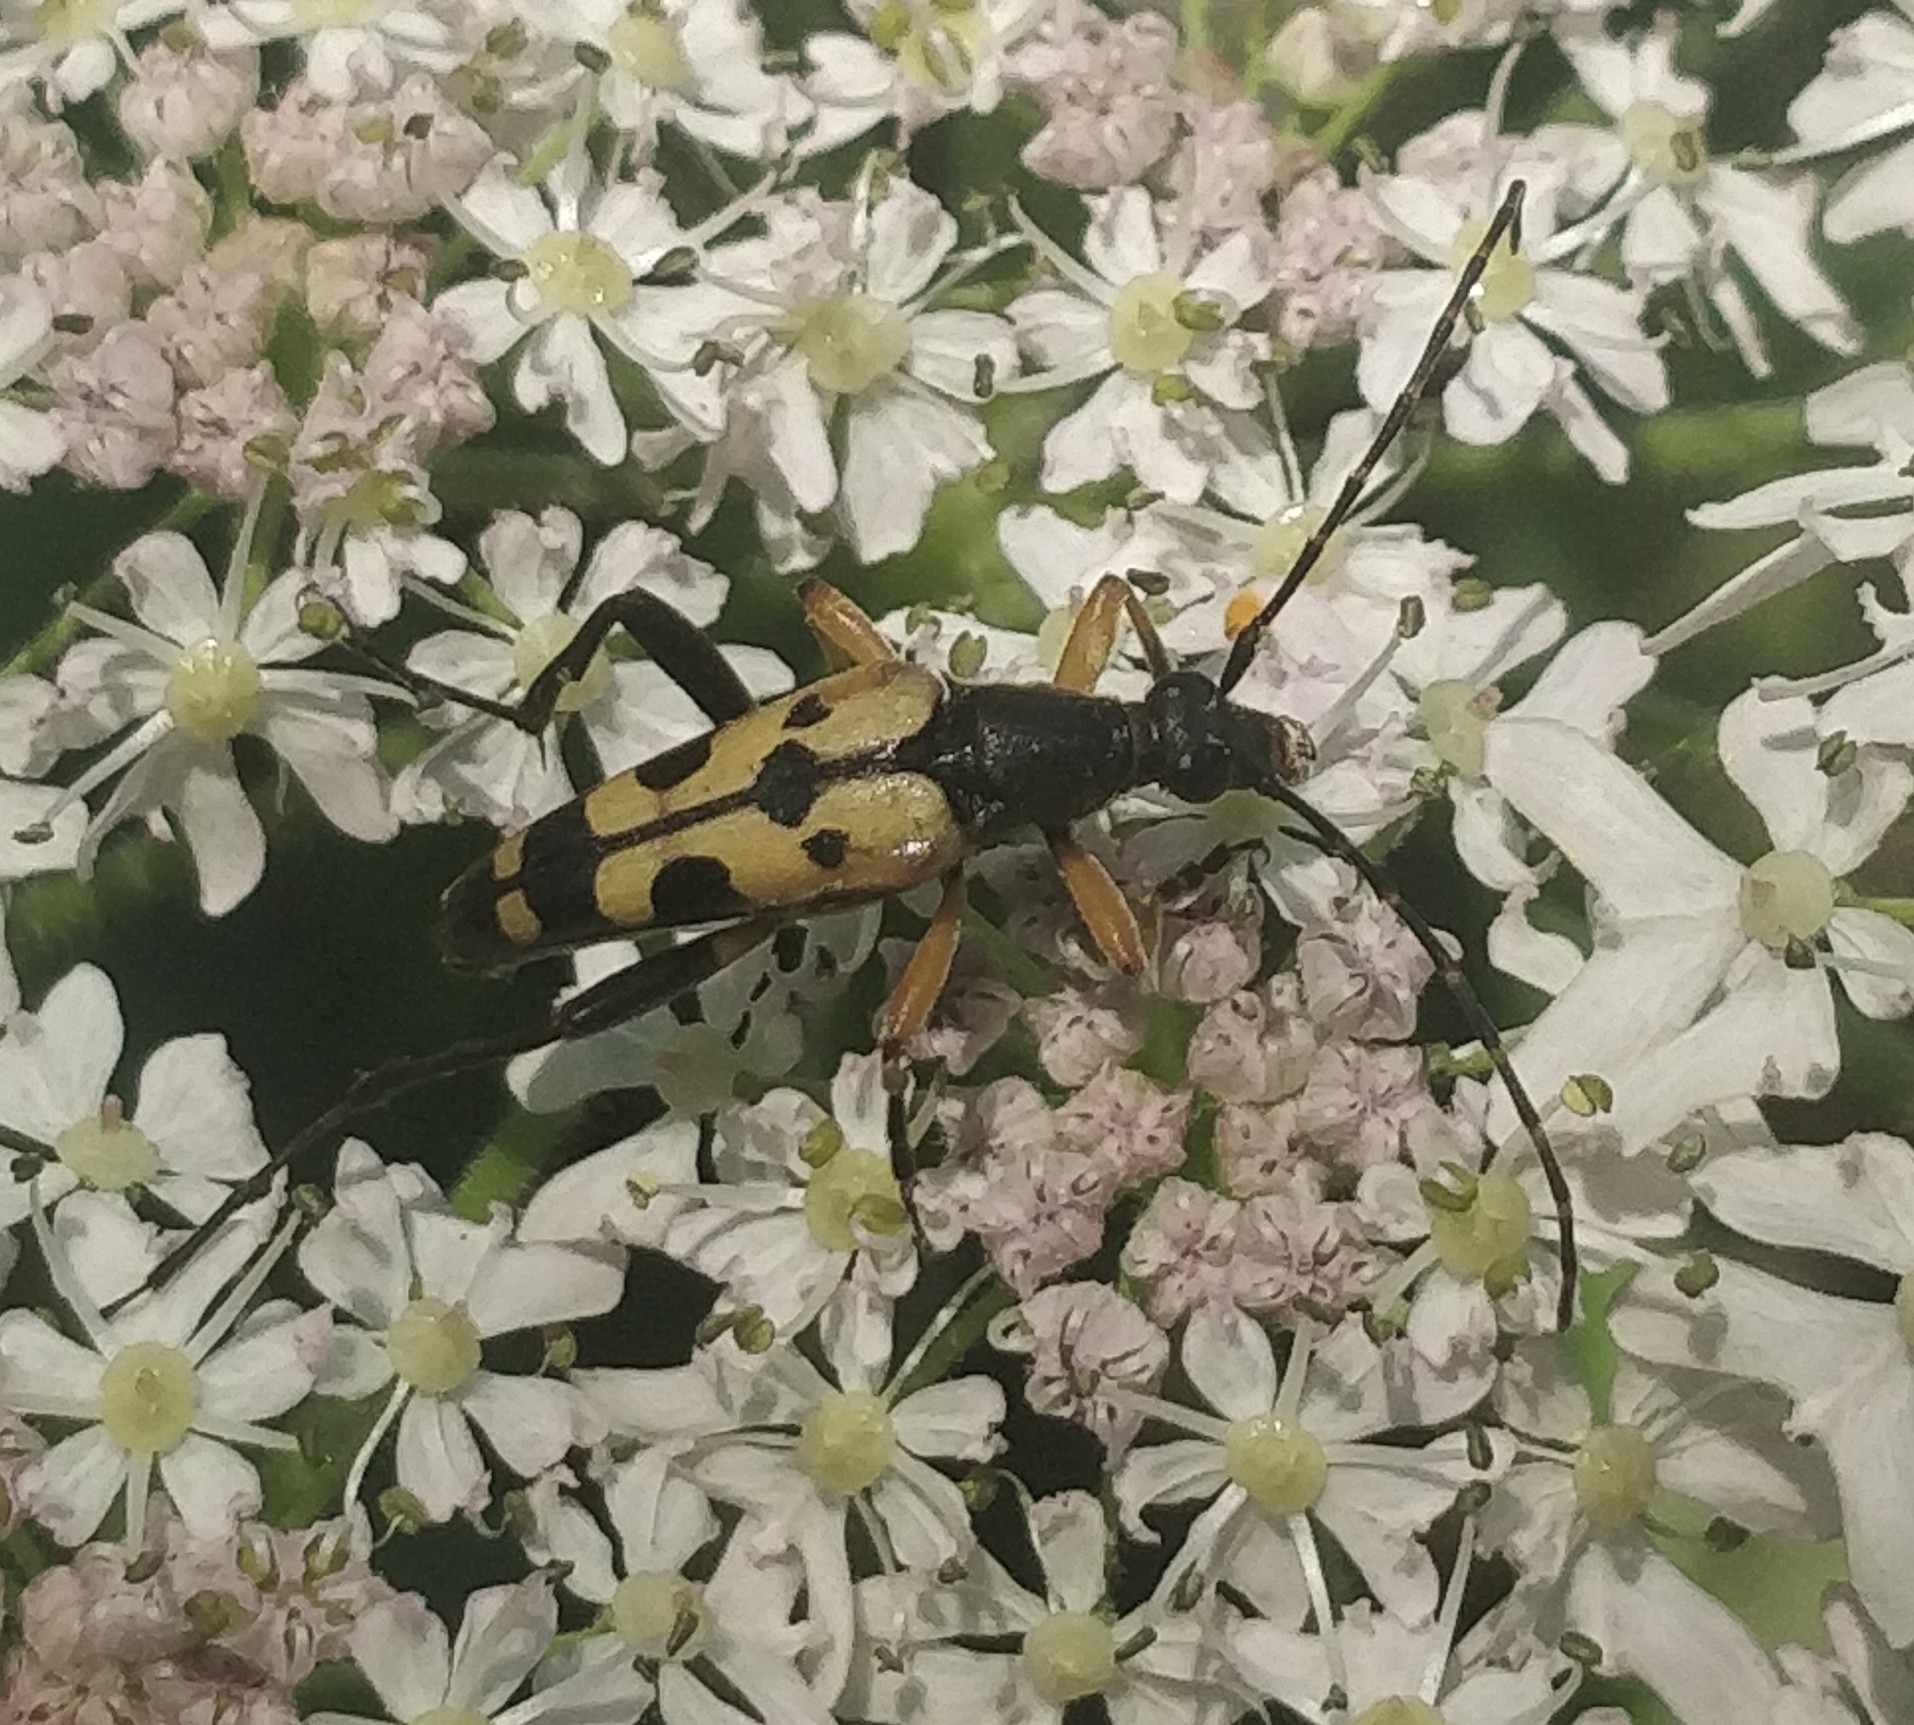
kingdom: Animalia
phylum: Arthropoda
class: Insecta
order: Coleoptera
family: Cerambycidae
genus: Rutpela
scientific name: Rutpela maculata
